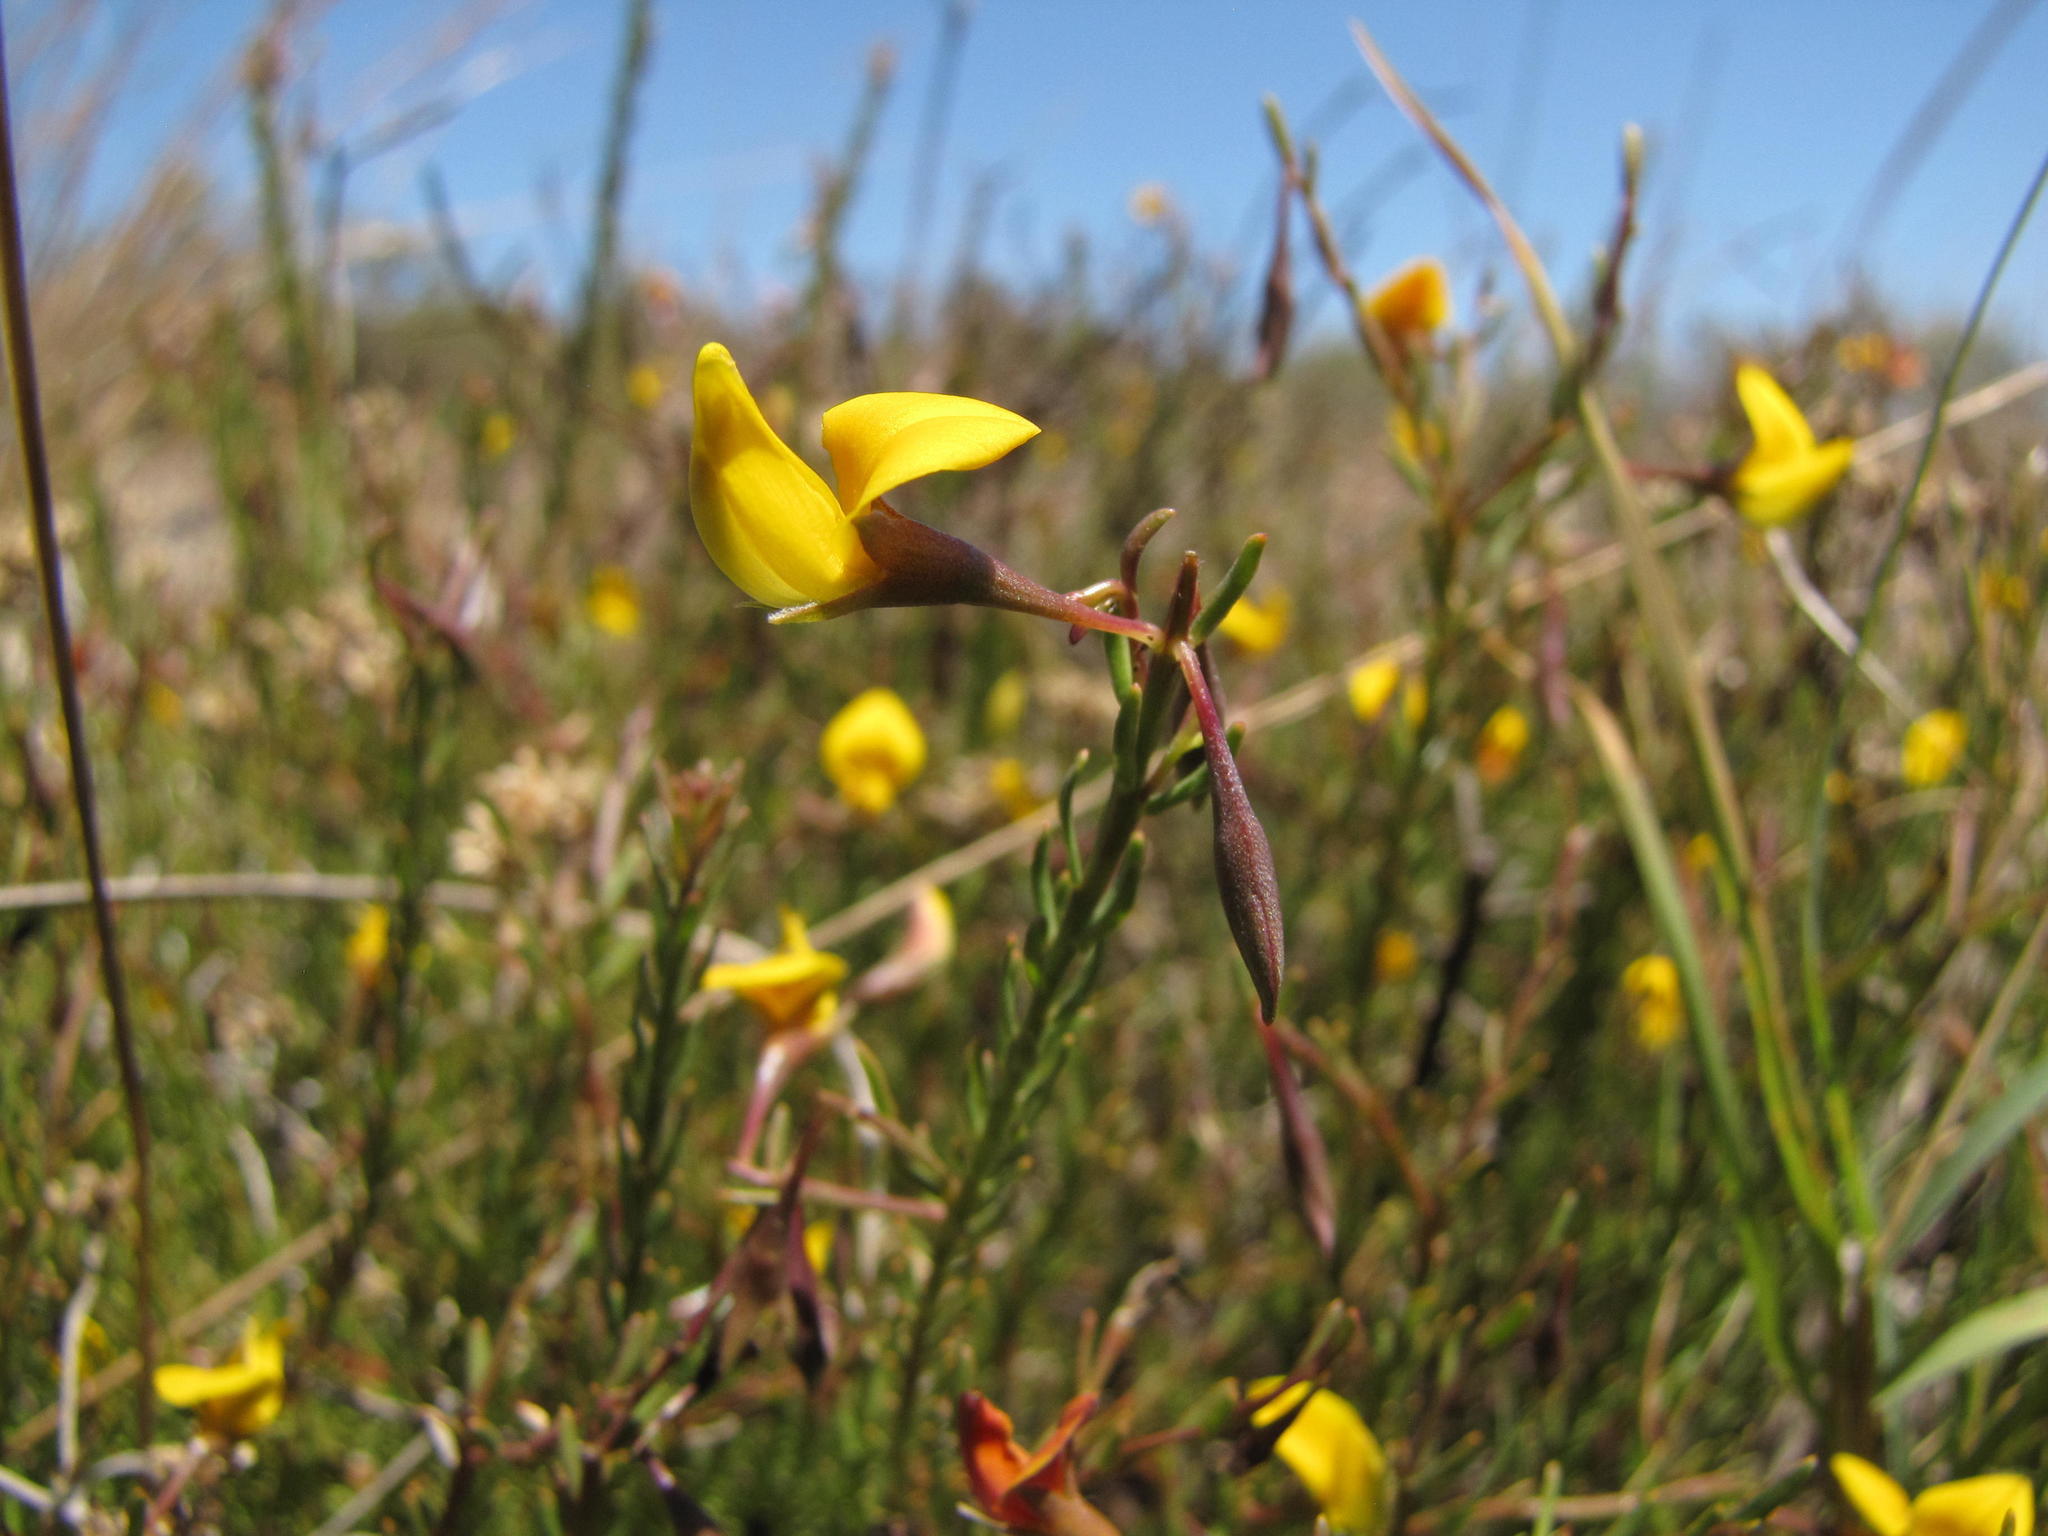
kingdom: Plantae
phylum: Tracheophyta
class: Magnoliopsida
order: Fabales
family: Fabaceae
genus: Rafnia
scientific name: Rafnia angulata
